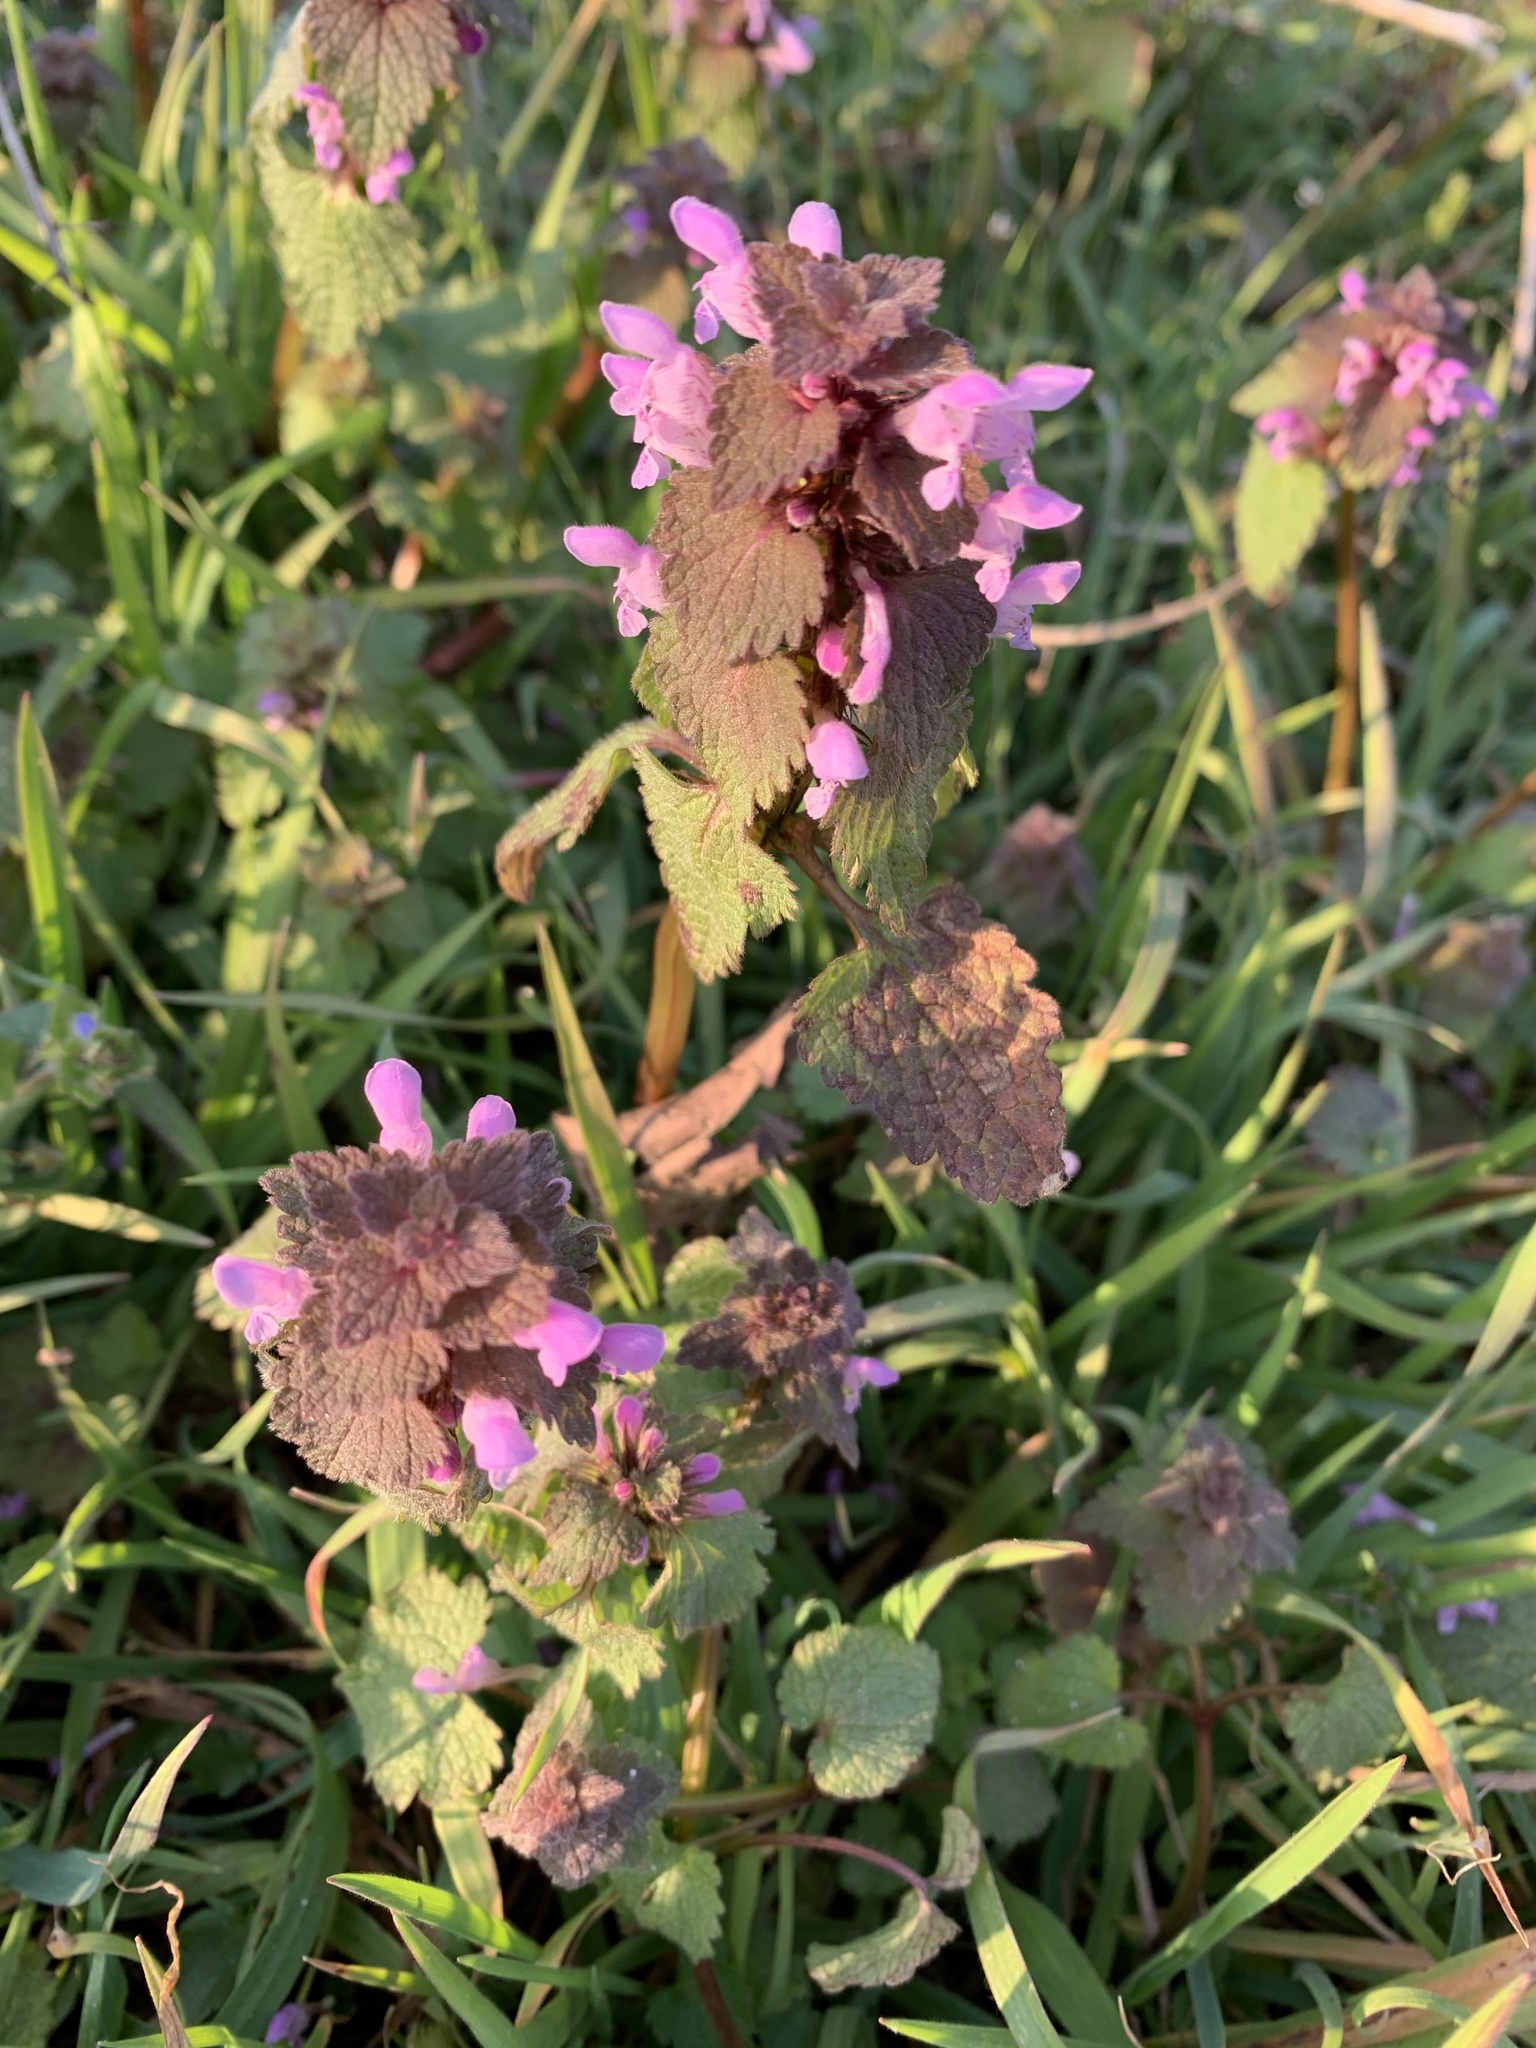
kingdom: Plantae
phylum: Tracheophyta
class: Magnoliopsida
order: Lamiales
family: Lamiaceae
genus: Lamium
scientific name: Lamium purpureum
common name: Red dead-nettle
